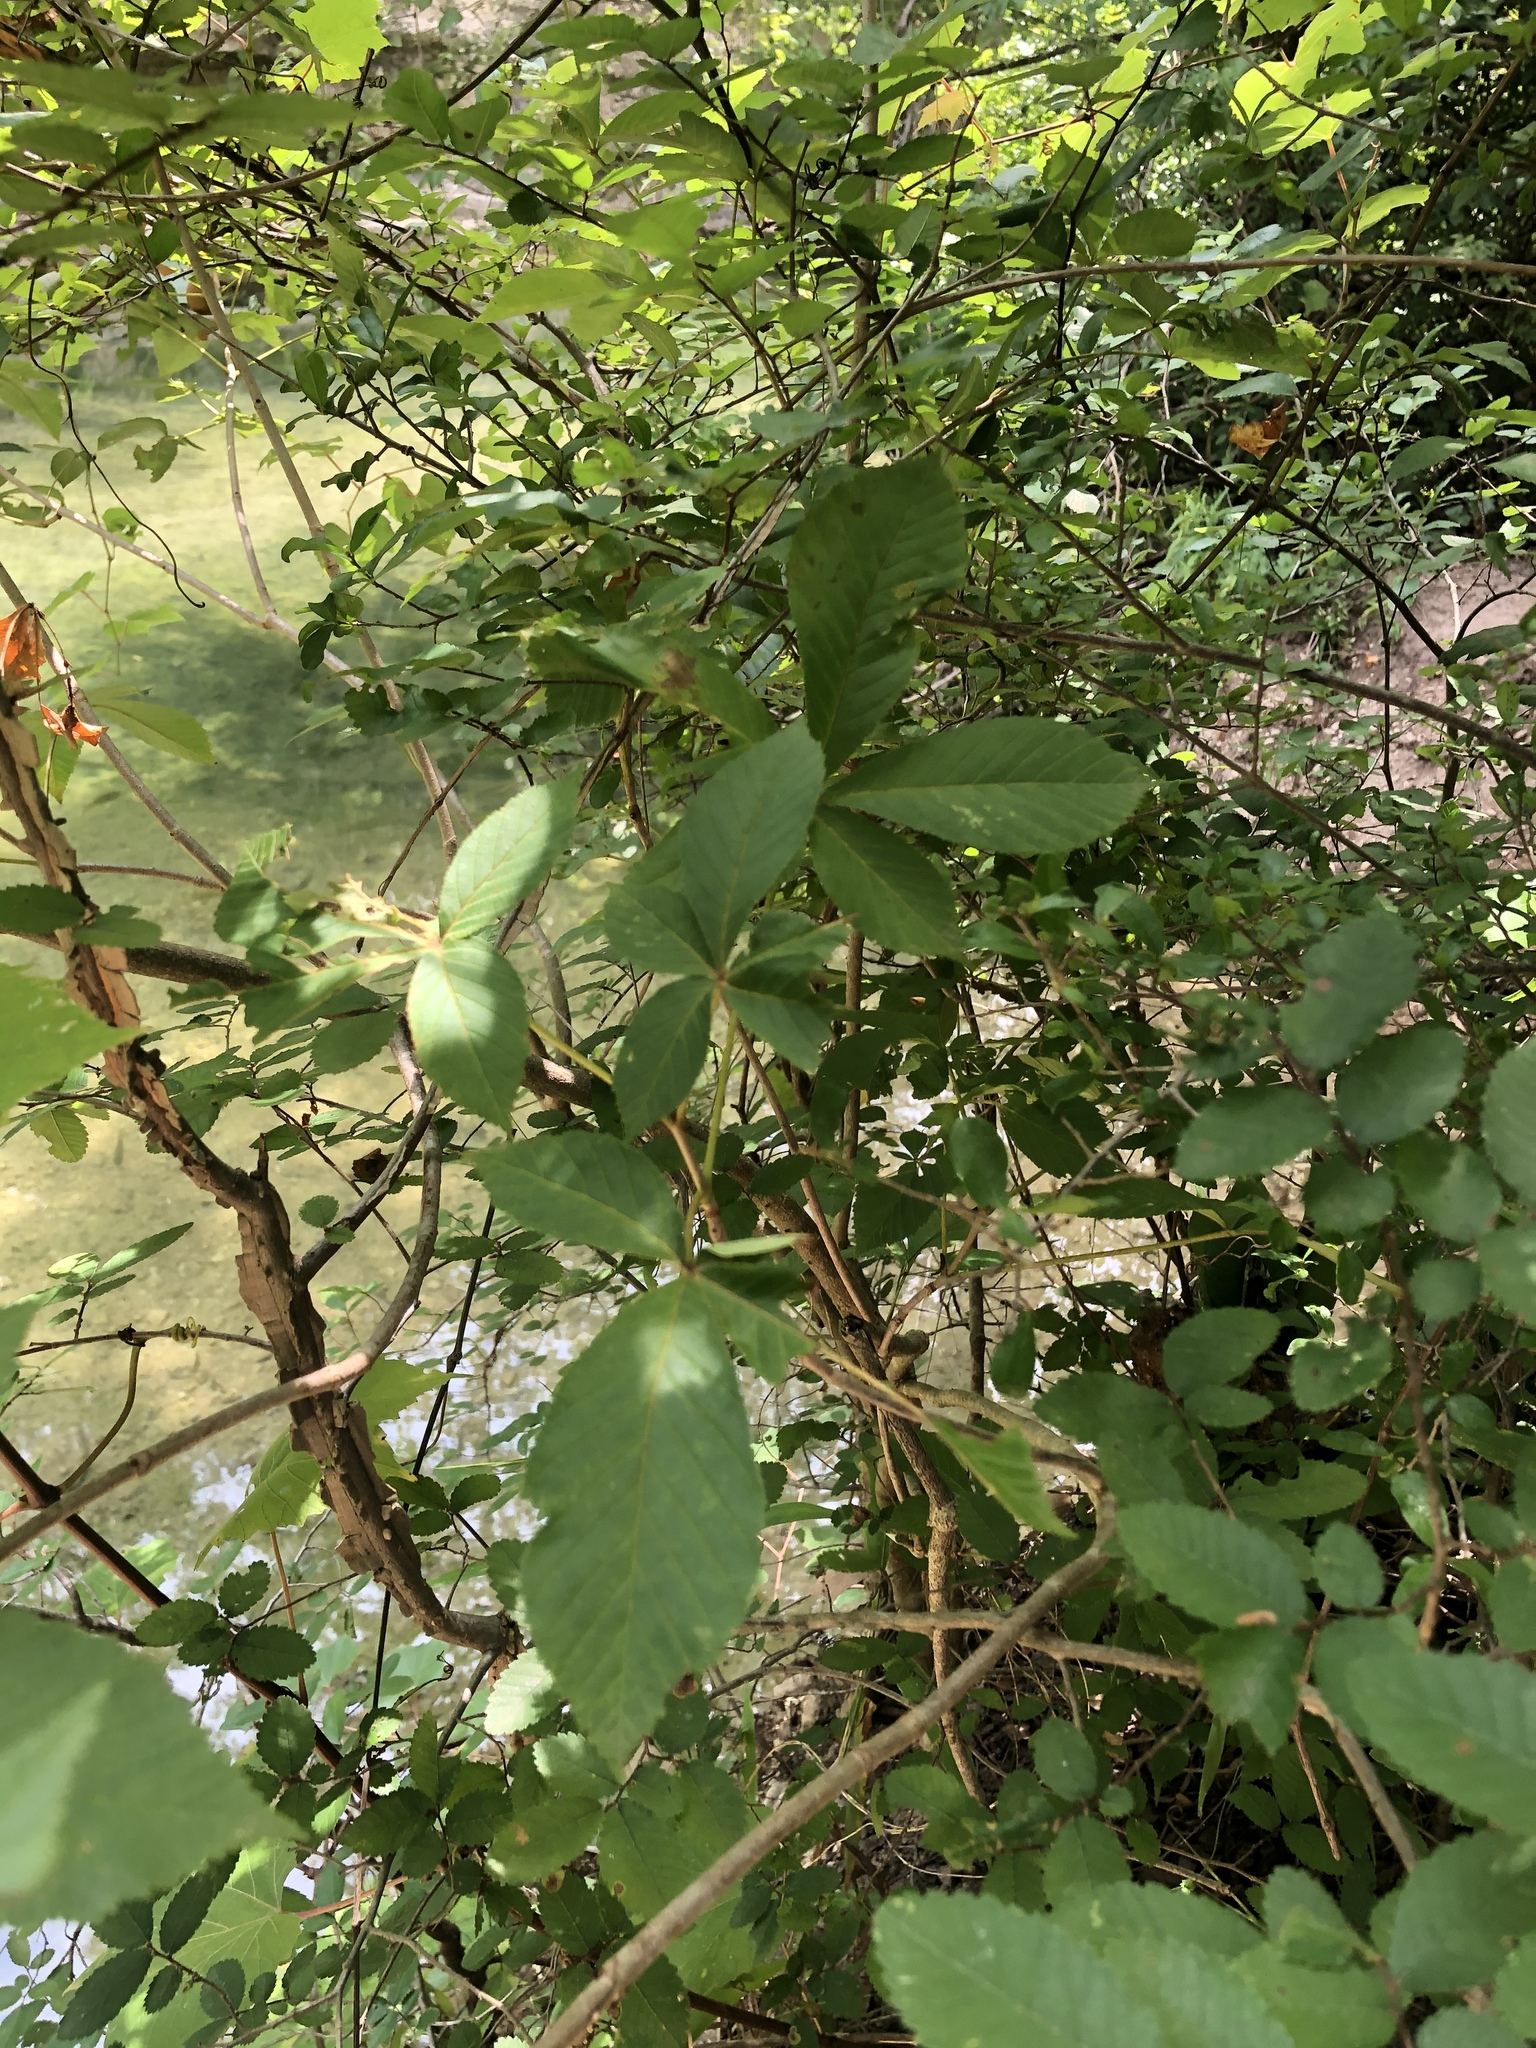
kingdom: Plantae
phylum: Tracheophyta
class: Magnoliopsida
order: Sapindales
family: Sapindaceae
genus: Aesculus
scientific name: Aesculus pavia
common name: Red buckeye
